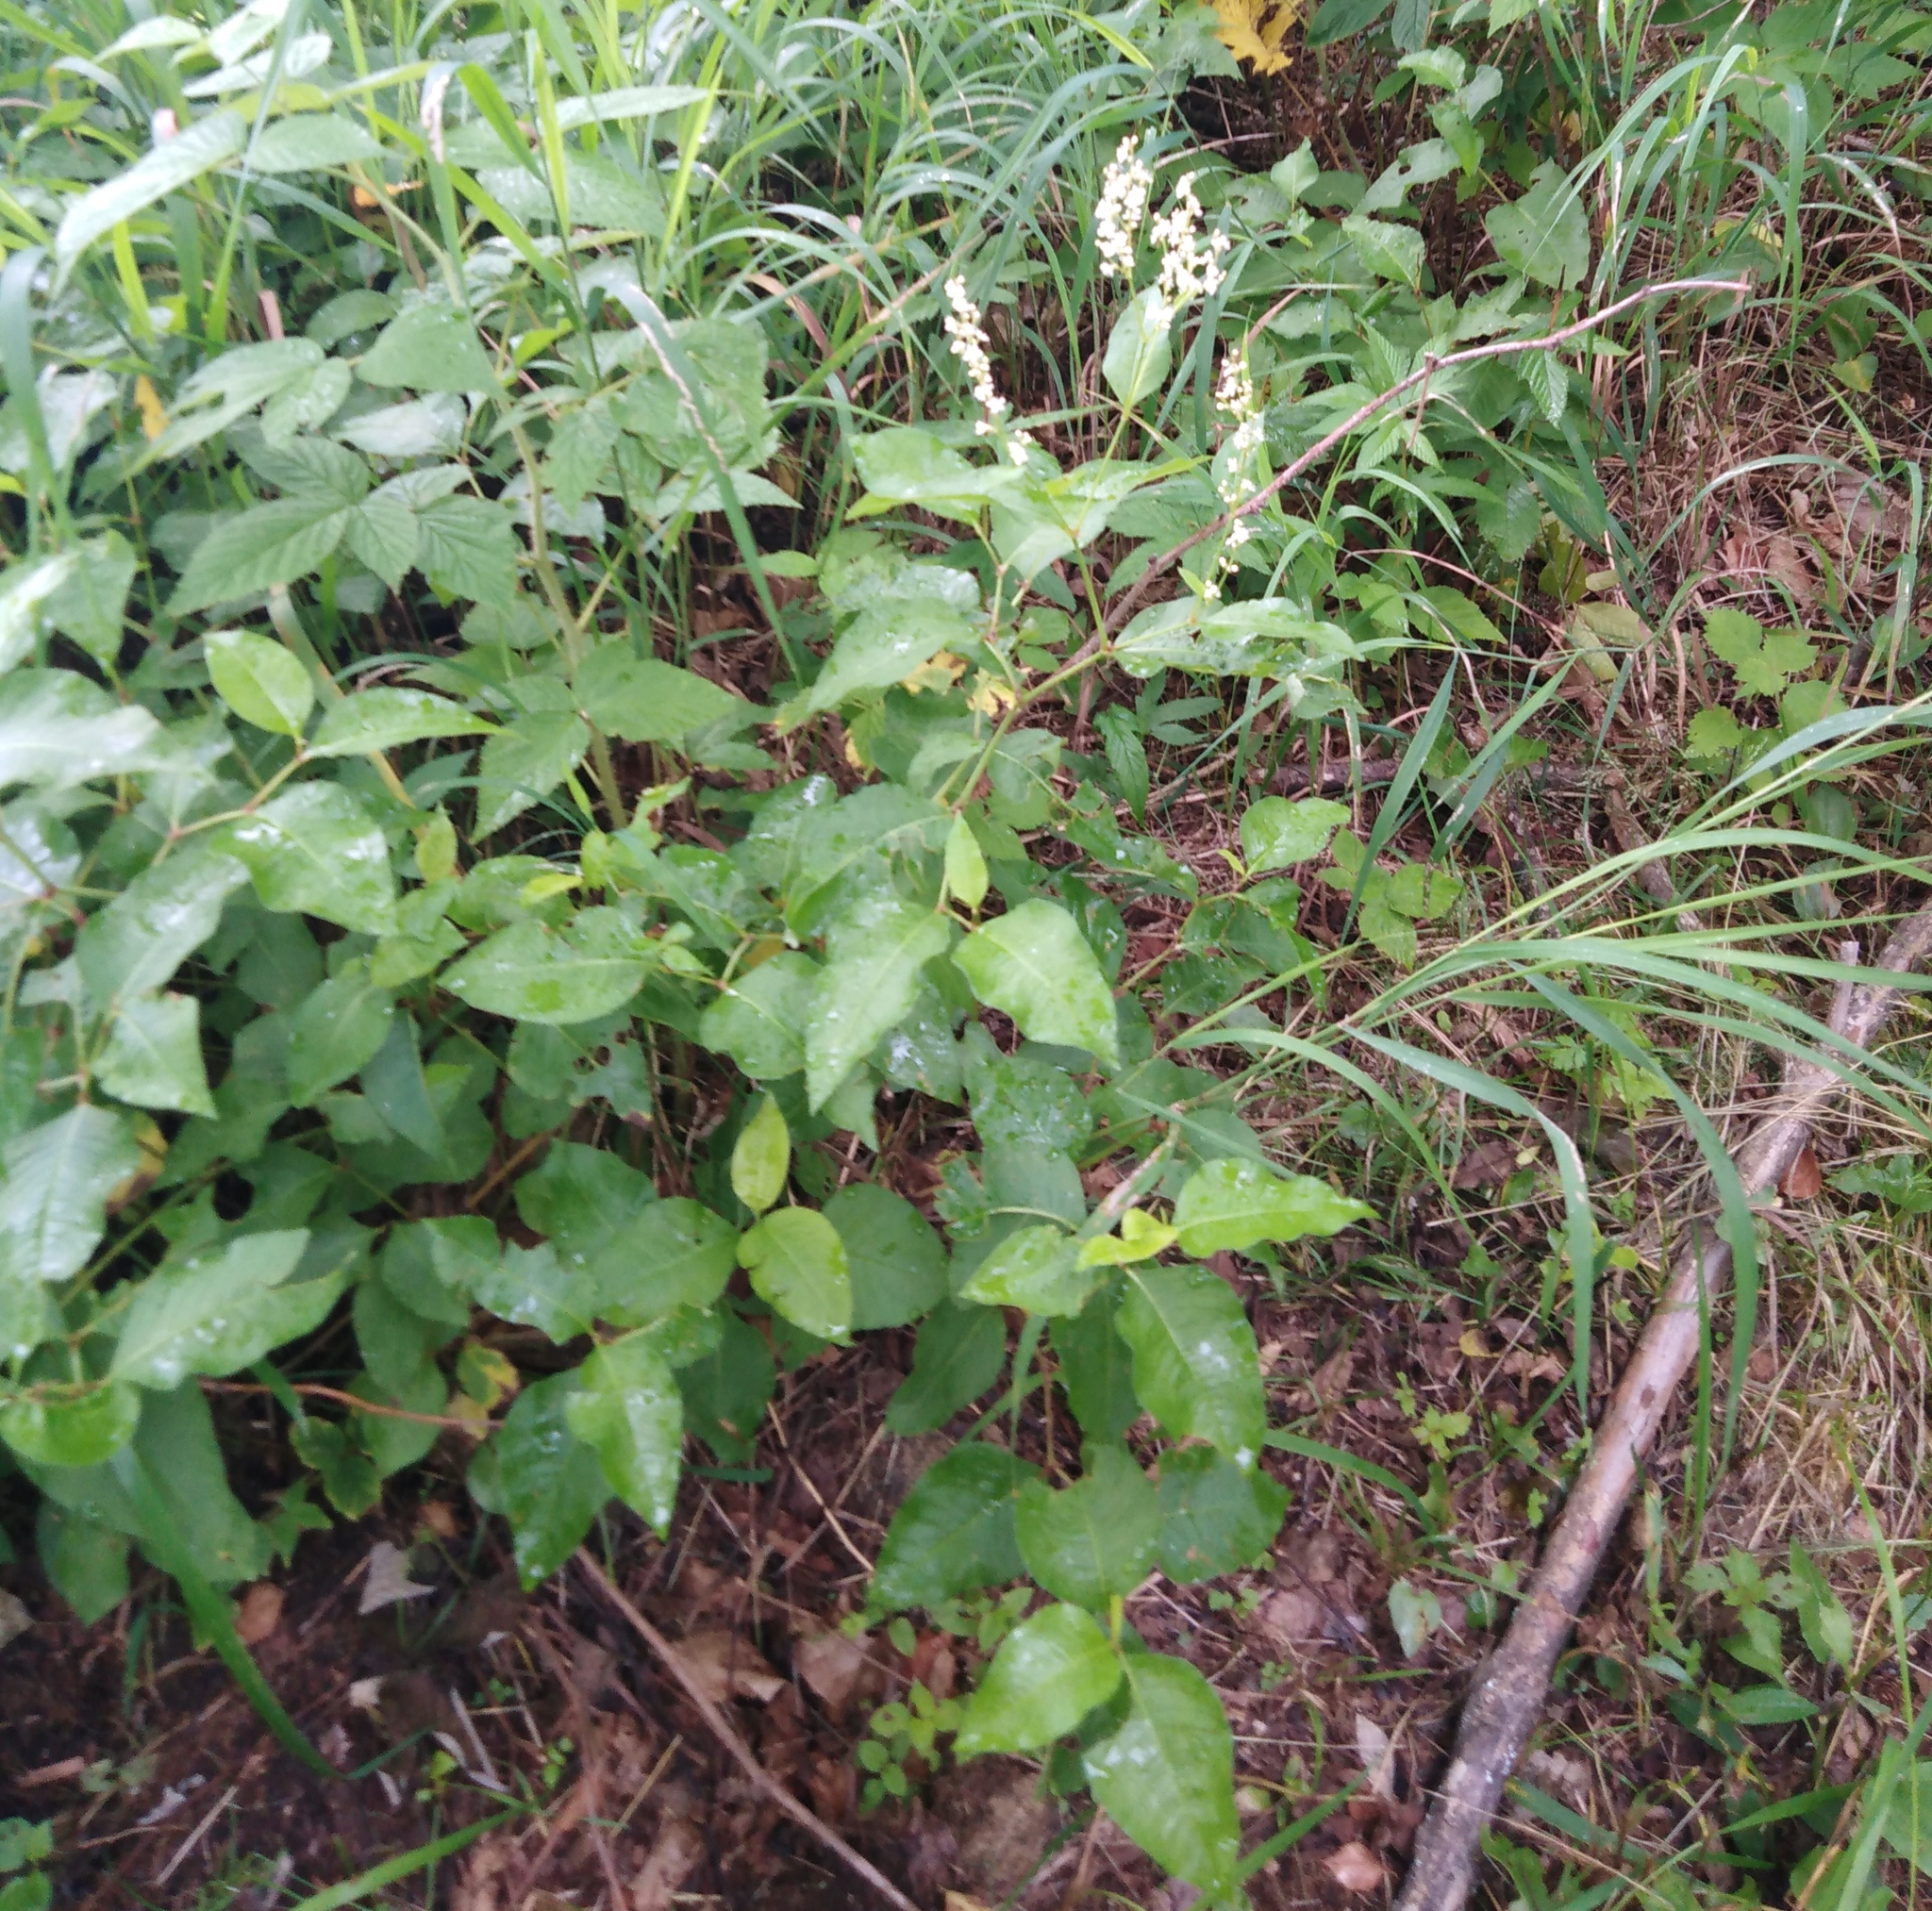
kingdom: Plantae
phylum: Tracheophyta
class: Magnoliopsida
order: Caryophyllales
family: Polygonaceae
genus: Koenigia
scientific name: Koenigia jurii
